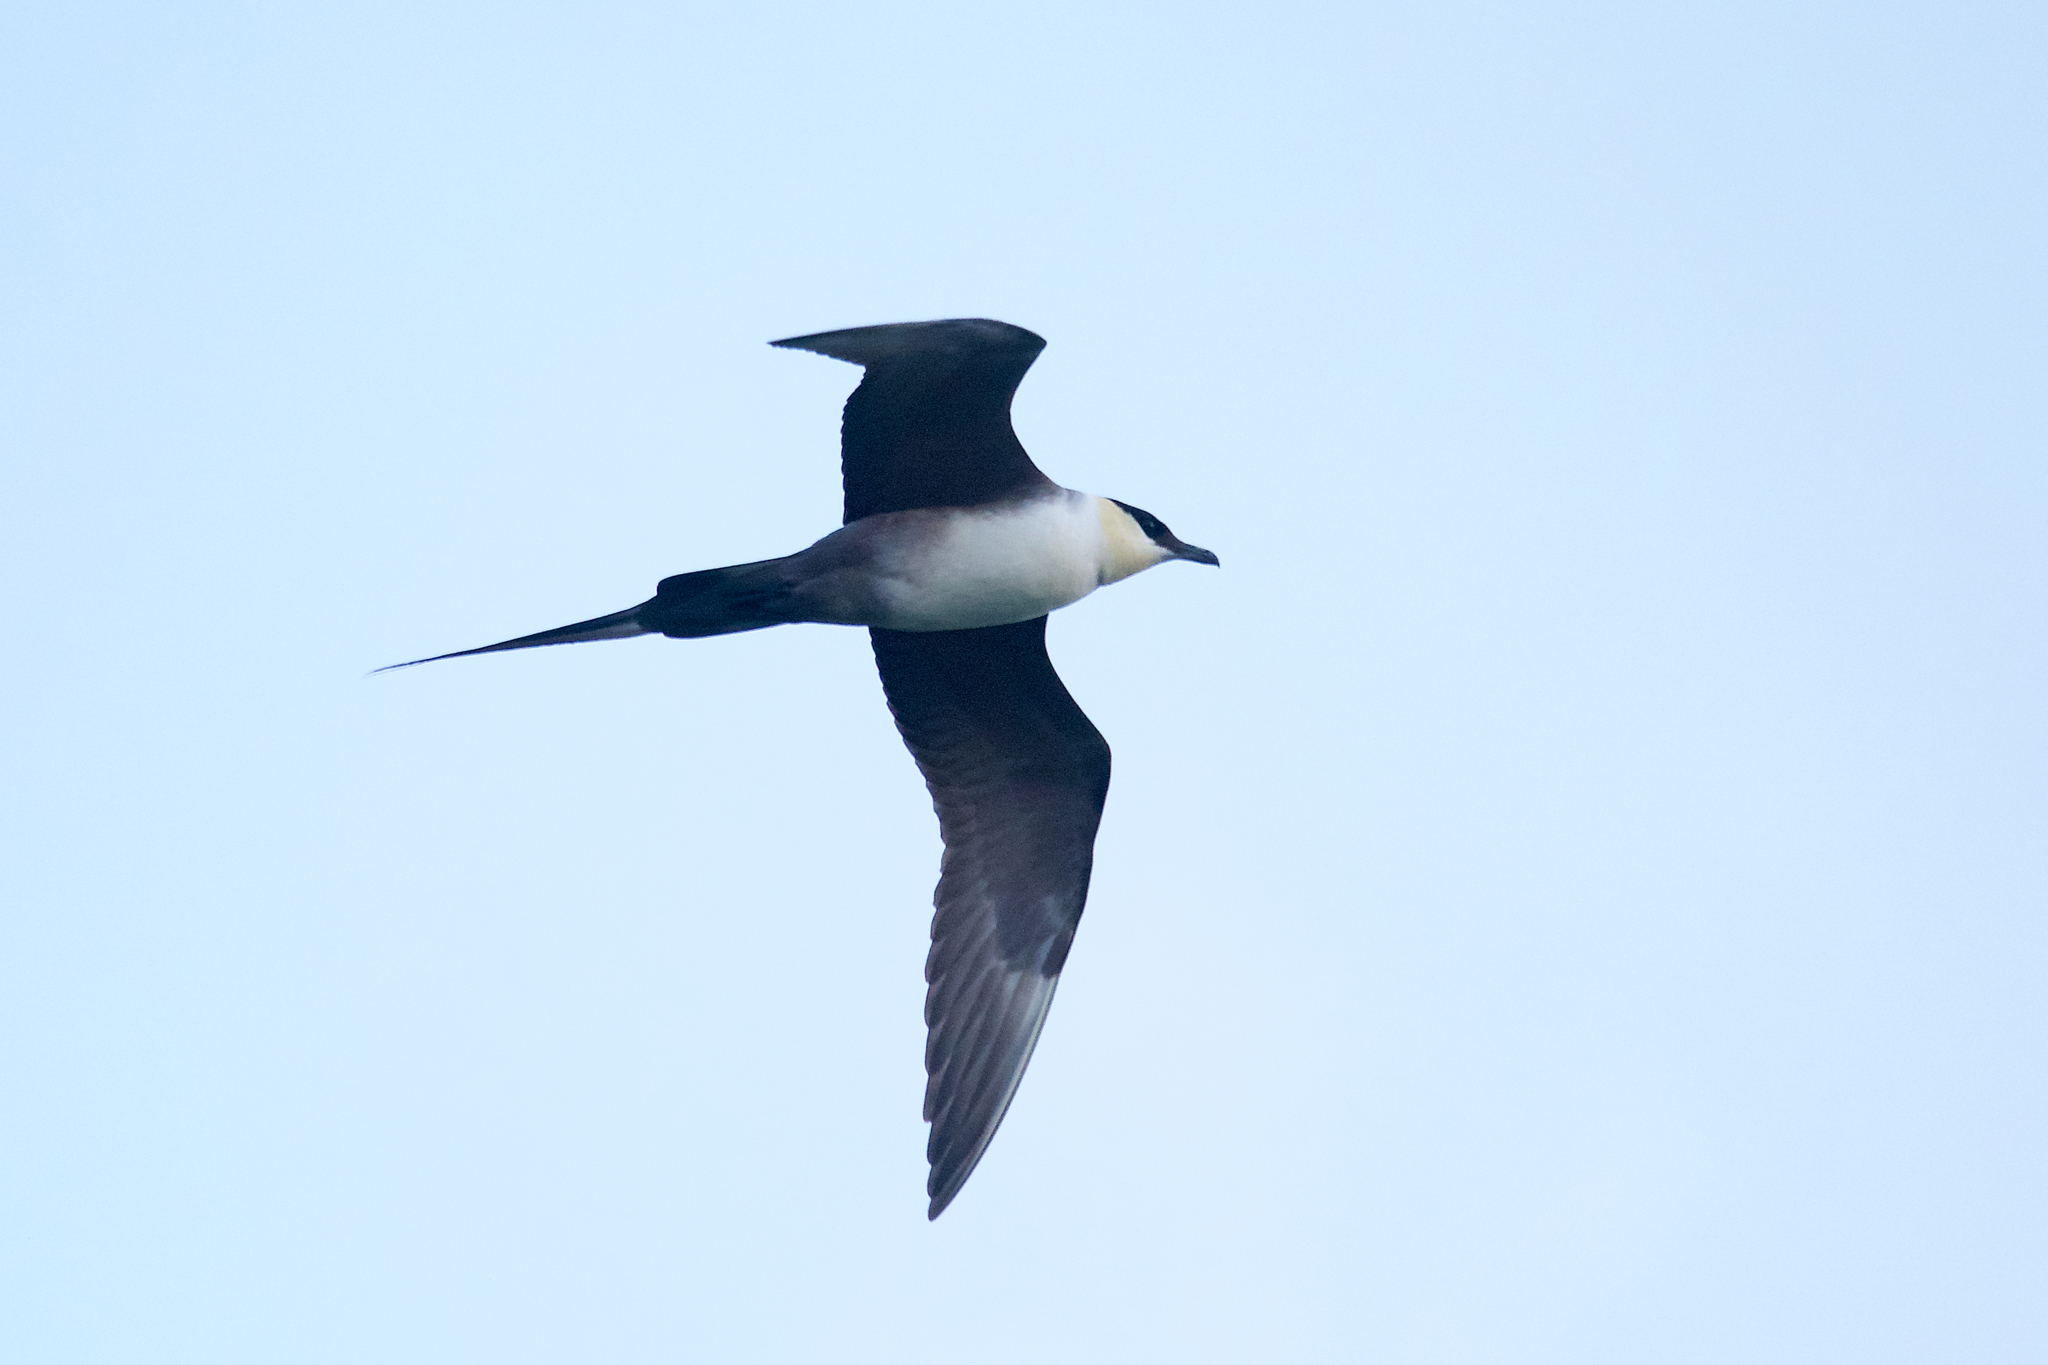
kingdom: Animalia
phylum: Chordata
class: Aves
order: Charadriiformes
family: Stercorariidae
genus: Stercorarius
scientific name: Stercorarius longicaudus
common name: Long-tailed jaeger
